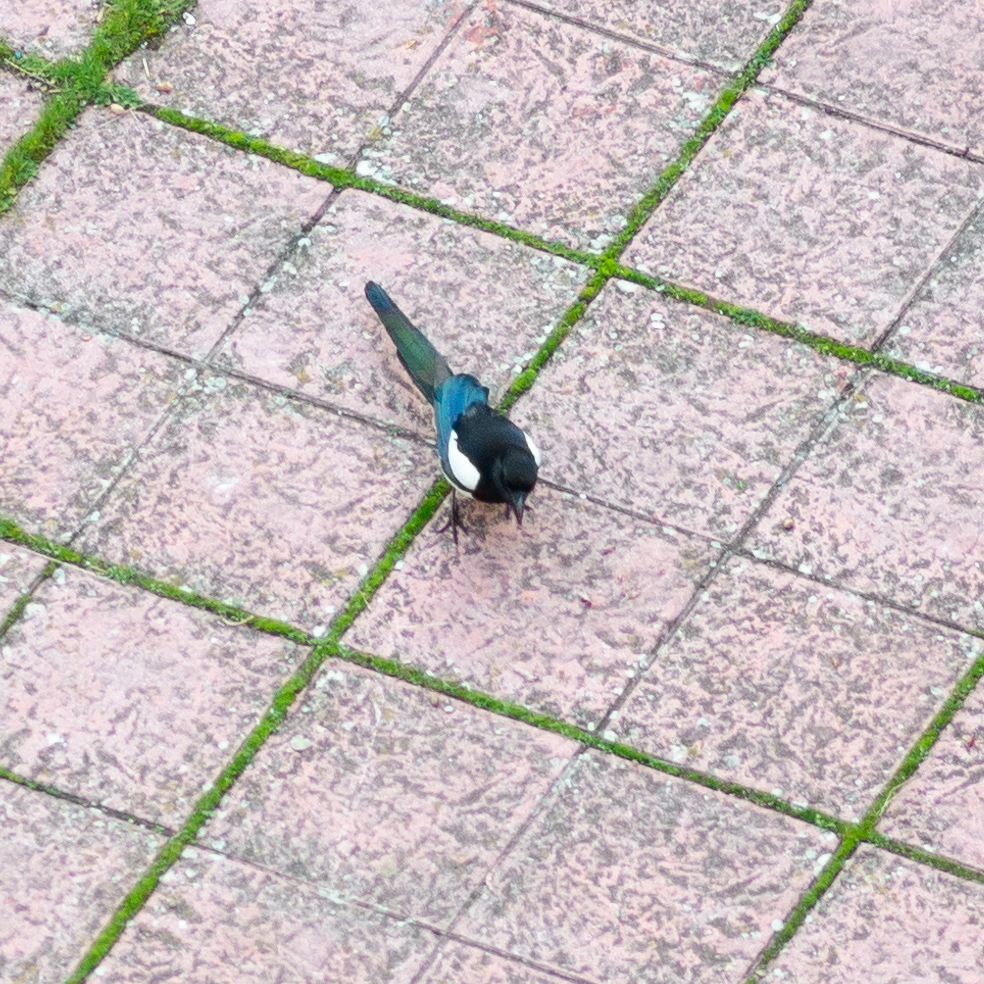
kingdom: Animalia
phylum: Chordata
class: Aves
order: Passeriformes
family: Corvidae
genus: Pica
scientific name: Pica pica
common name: Eurasian magpie
